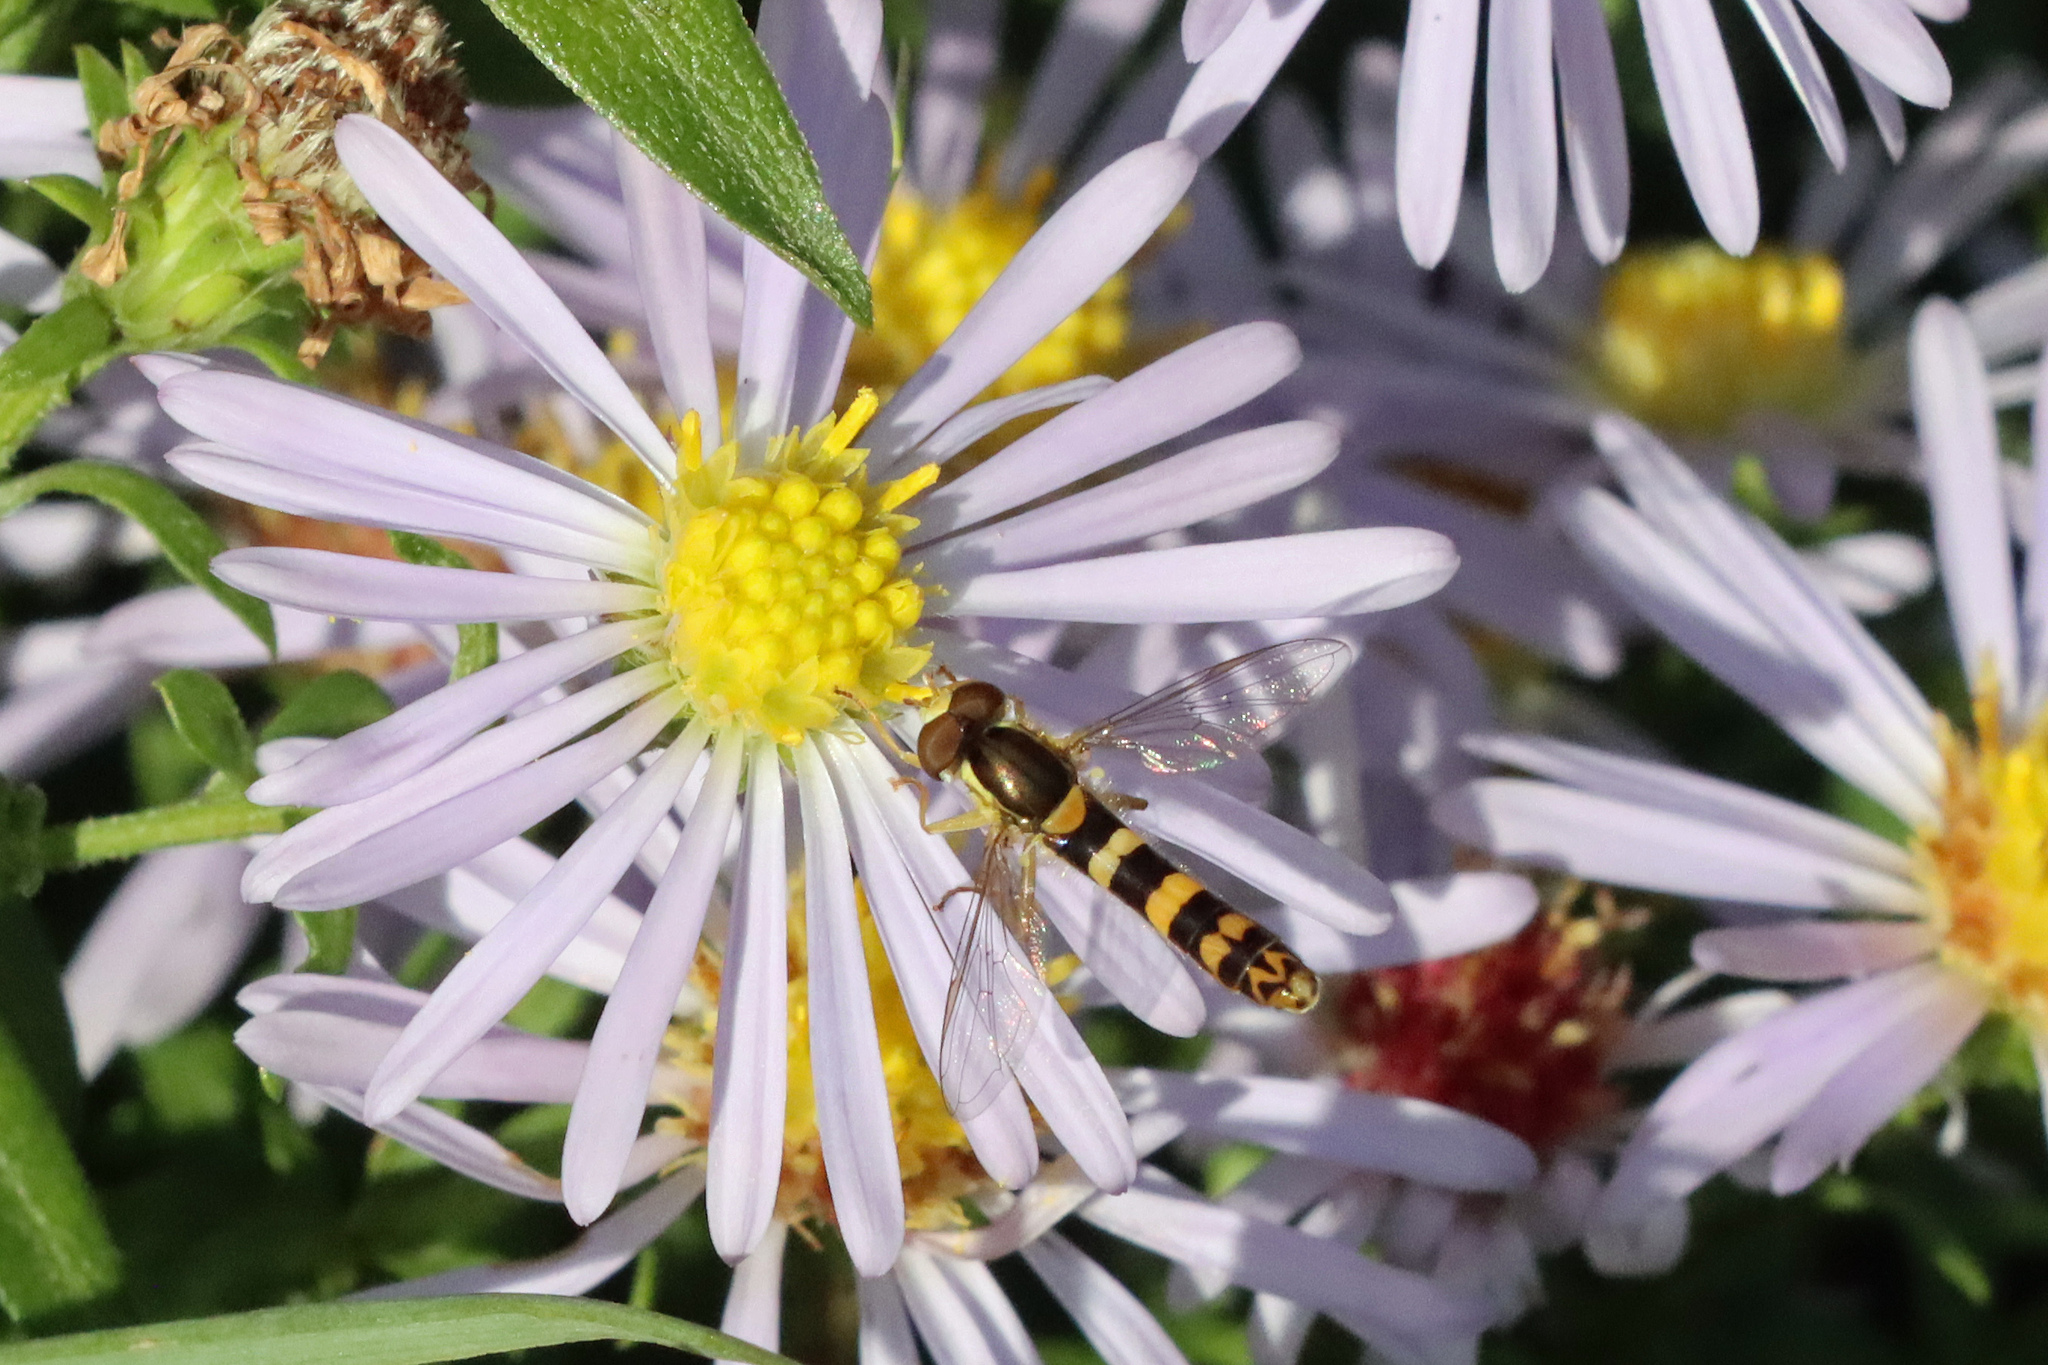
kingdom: Animalia
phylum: Arthropoda
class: Insecta
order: Diptera
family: Syrphidae
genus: Sphaerophoria
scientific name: Sphaerophoria scripta
